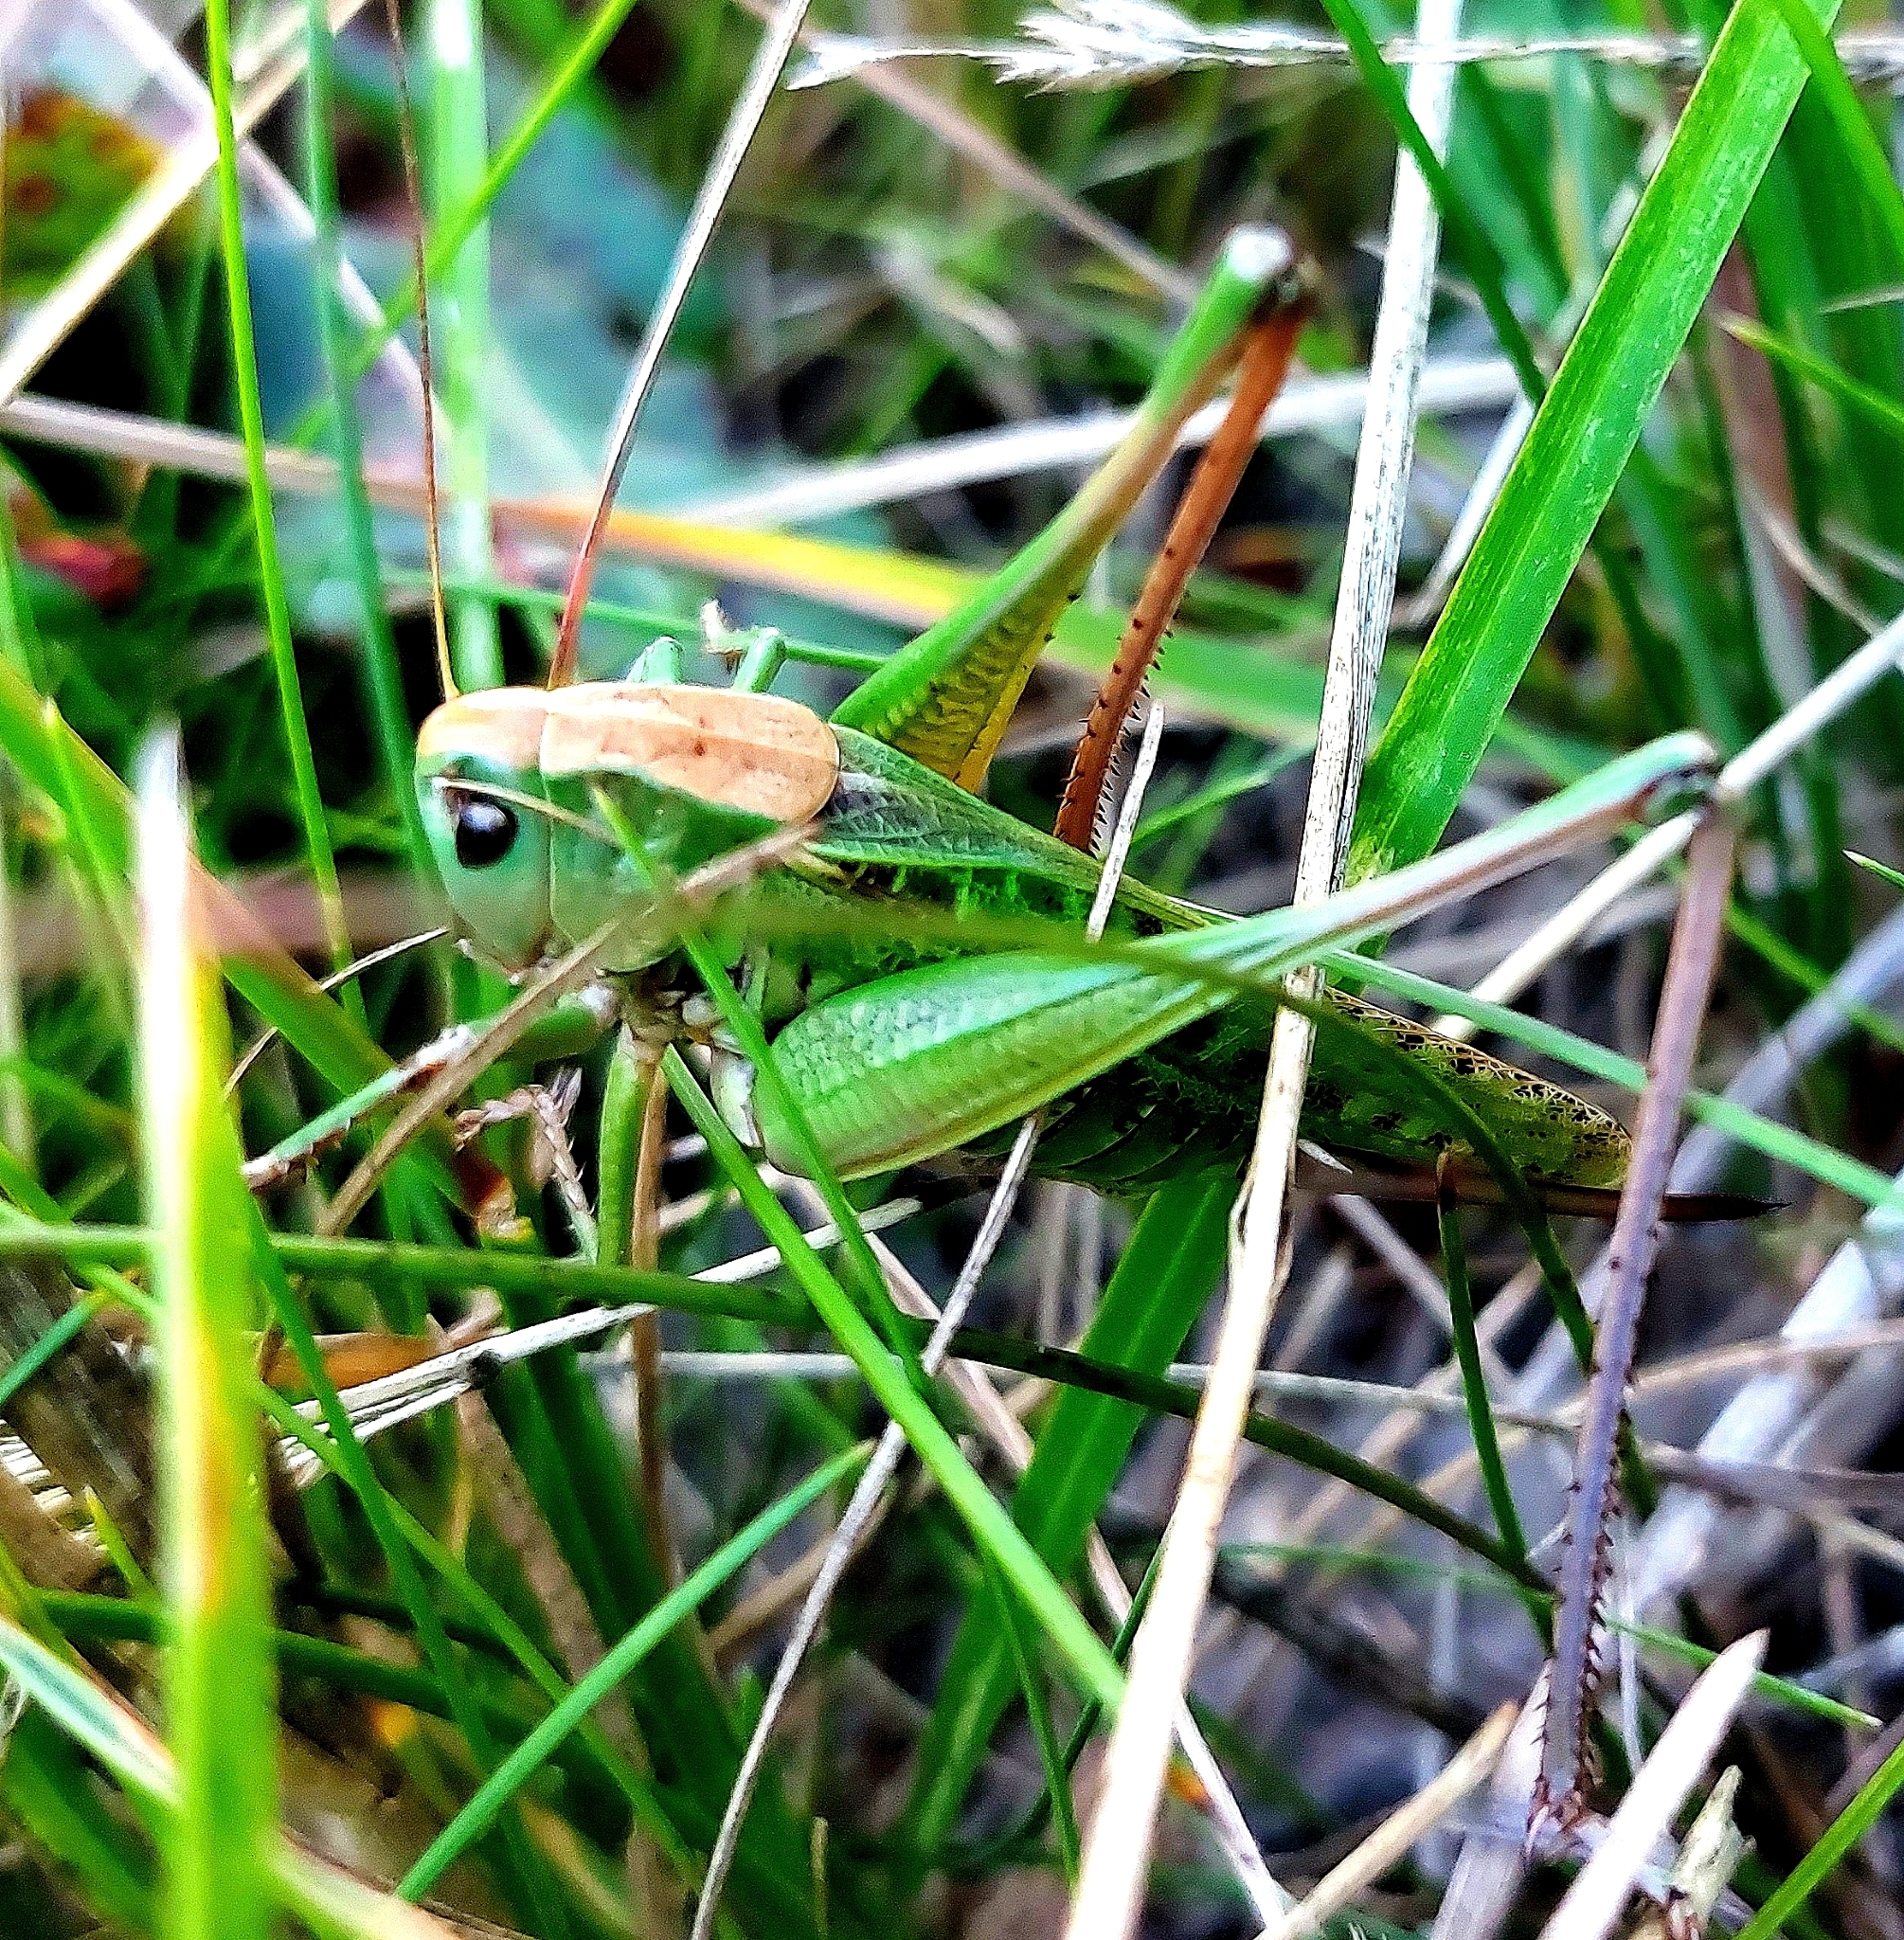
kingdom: Animalia
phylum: Arthropoda
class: Insecta
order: Orthoptera
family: Tettigoniidae
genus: Decticus
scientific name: Decticus verrucivorus
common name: Wart-biter
